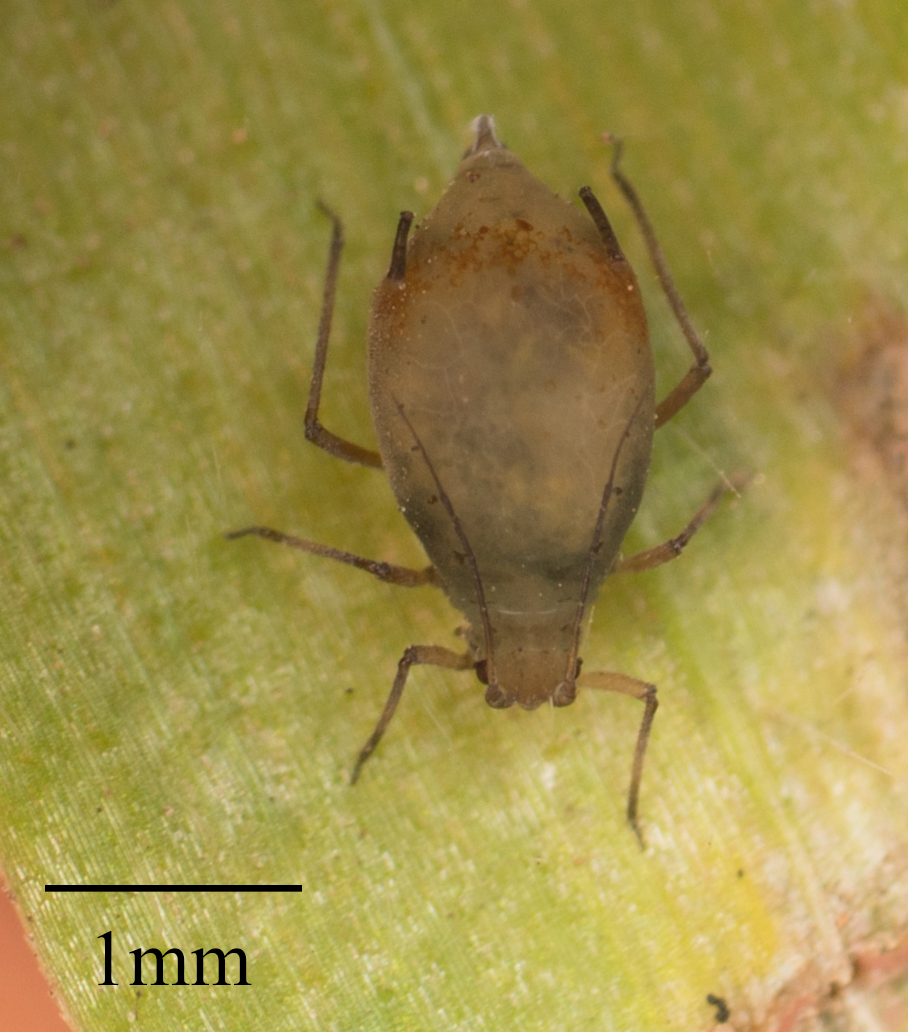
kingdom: Animalia
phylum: Arthropoda
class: Insecta
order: Hemiptera
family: Aphididae
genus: Rhopalosiphum
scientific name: Rhopalosiphum padi
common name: Oat-birdcherry aphid
